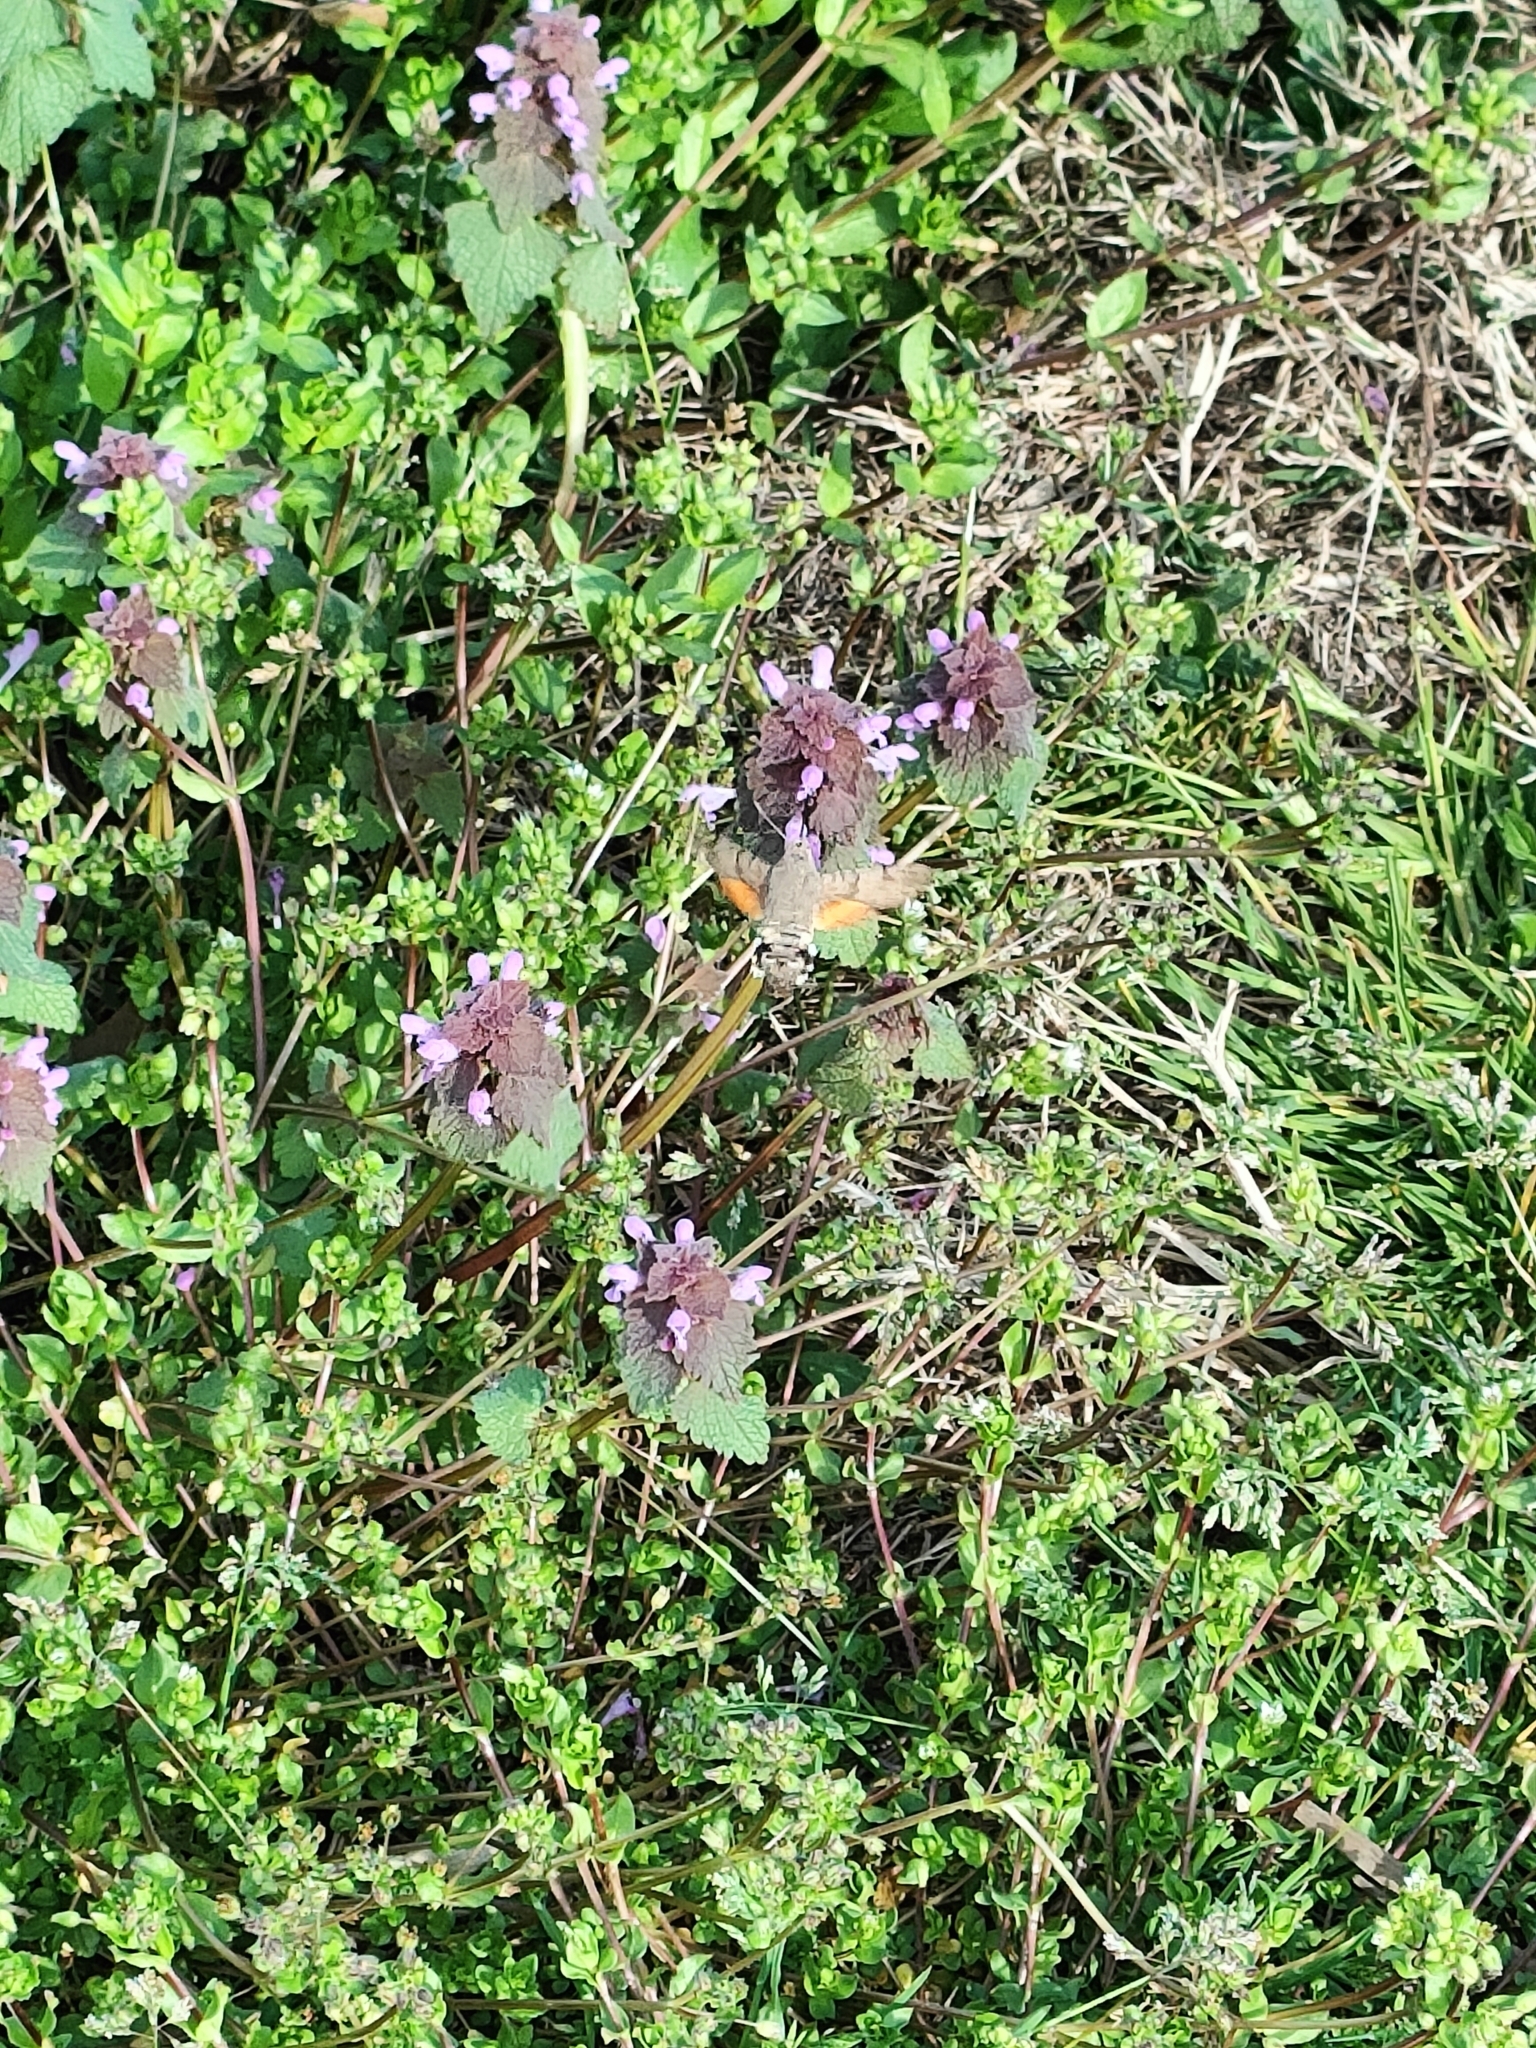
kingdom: Animalia
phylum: Arthropoda
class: Insecta
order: Lepidoptera
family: Sphingidae
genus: Macroglossum
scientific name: Macroglossum stellatarum
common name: Humming-bird hawk-moth
